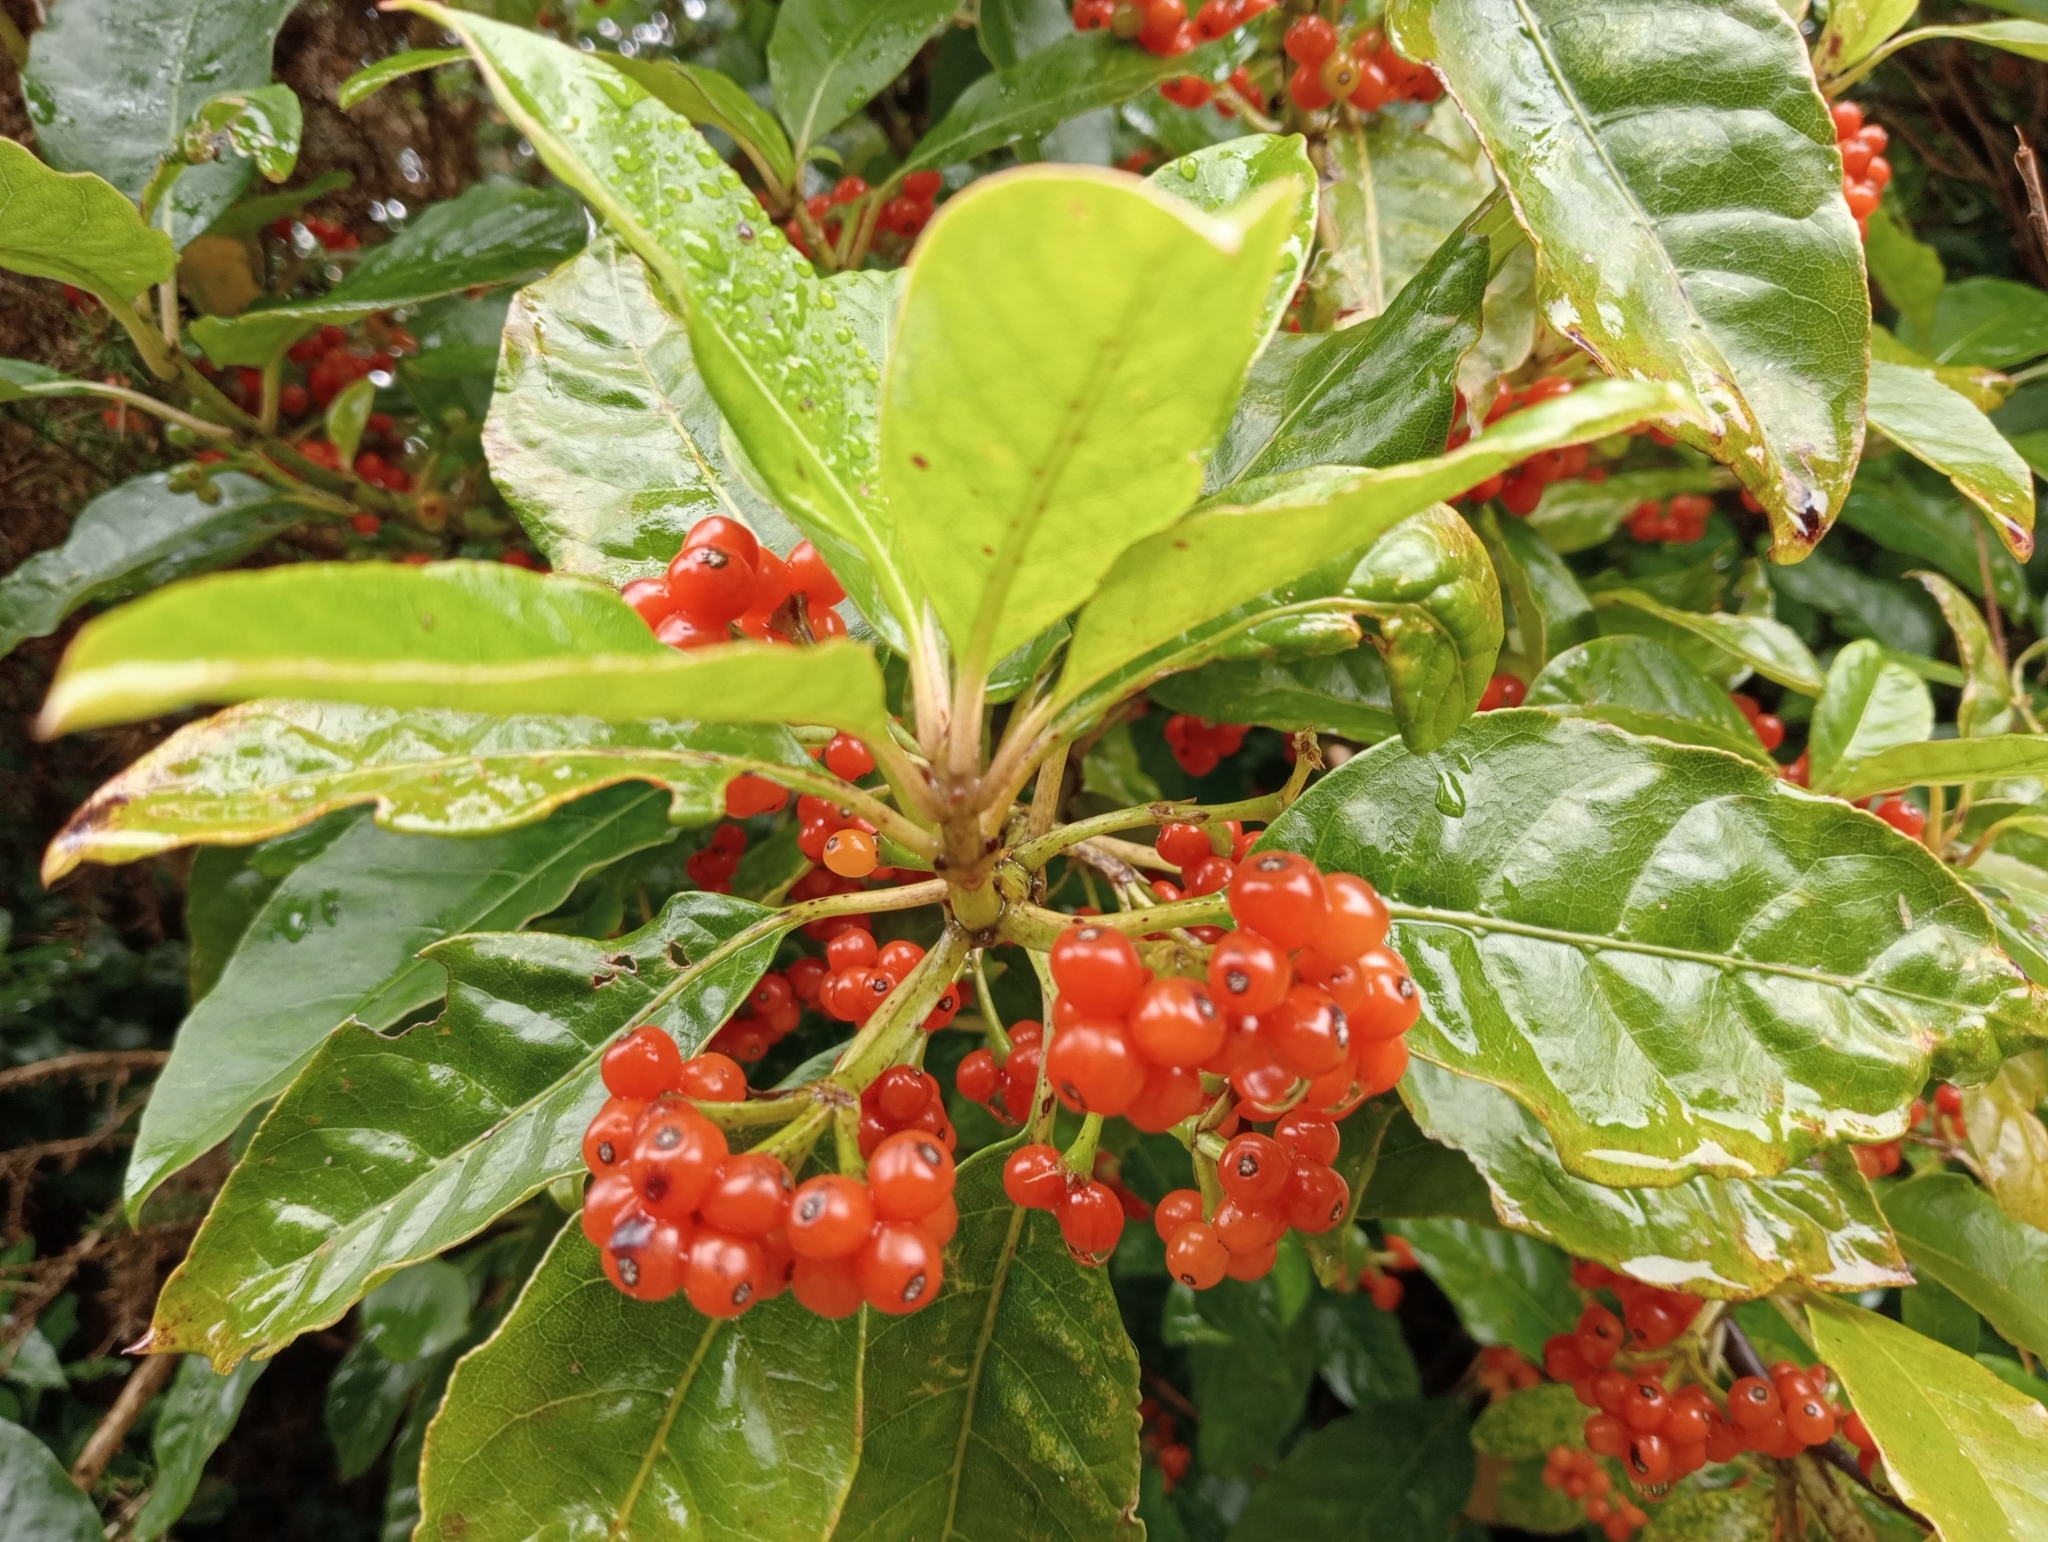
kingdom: Plantae
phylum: Tracheophyta
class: Magnoliopsida
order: Gentianales
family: Rubiaceae
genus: Coprosma
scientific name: Coprosma autumnalis
